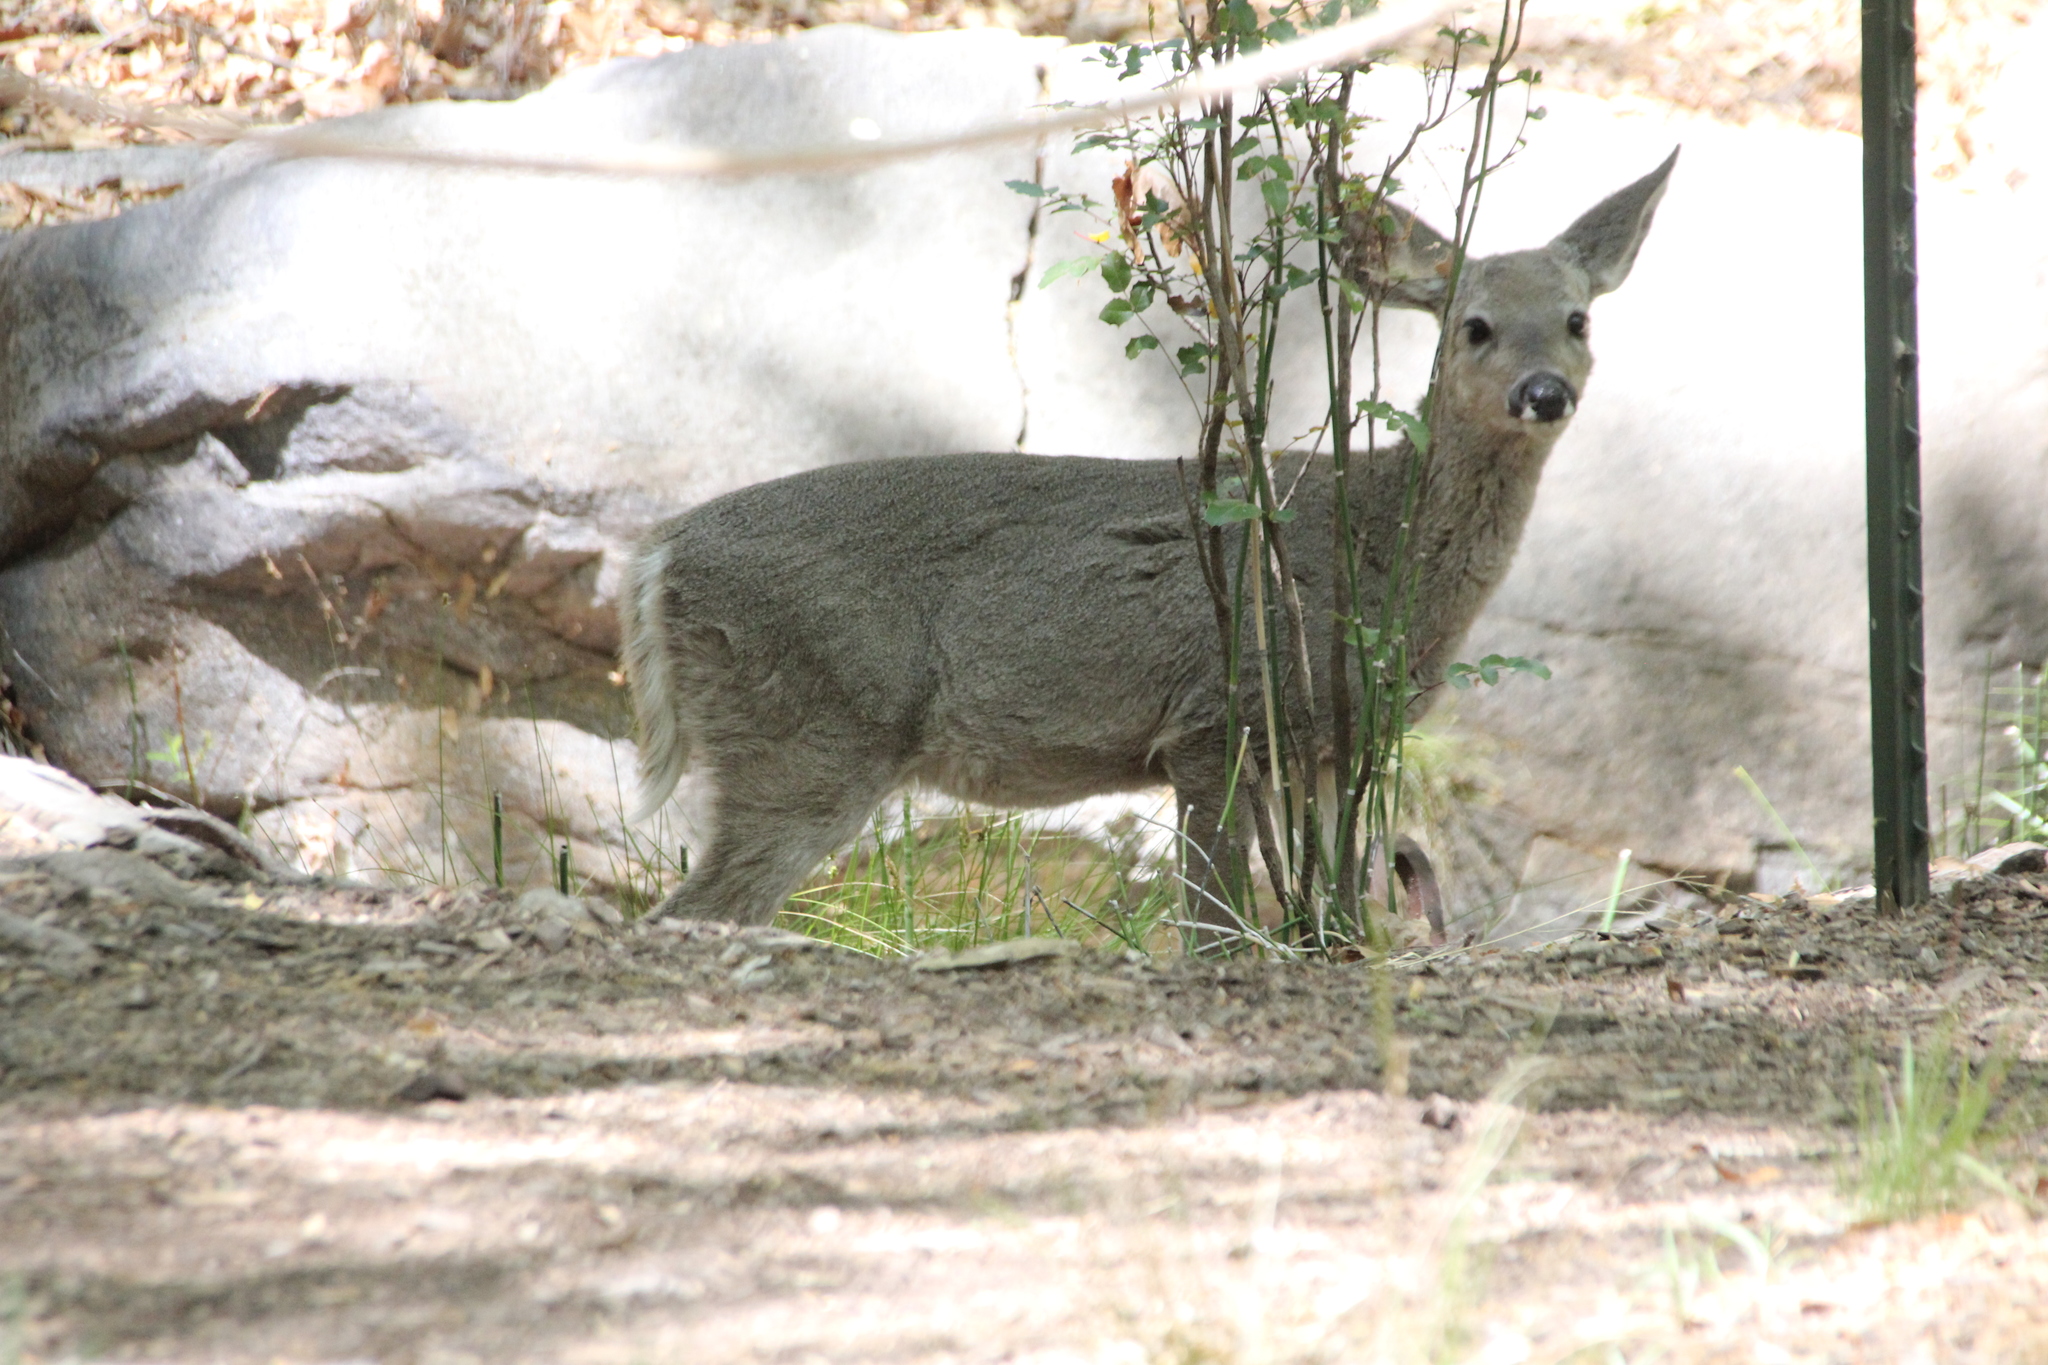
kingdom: Animalia
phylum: Chordata
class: Mammalia
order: Artiodactyla
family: Cervidae
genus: Odocoileus
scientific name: Odocoileus virginianus
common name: White-tailed deer
